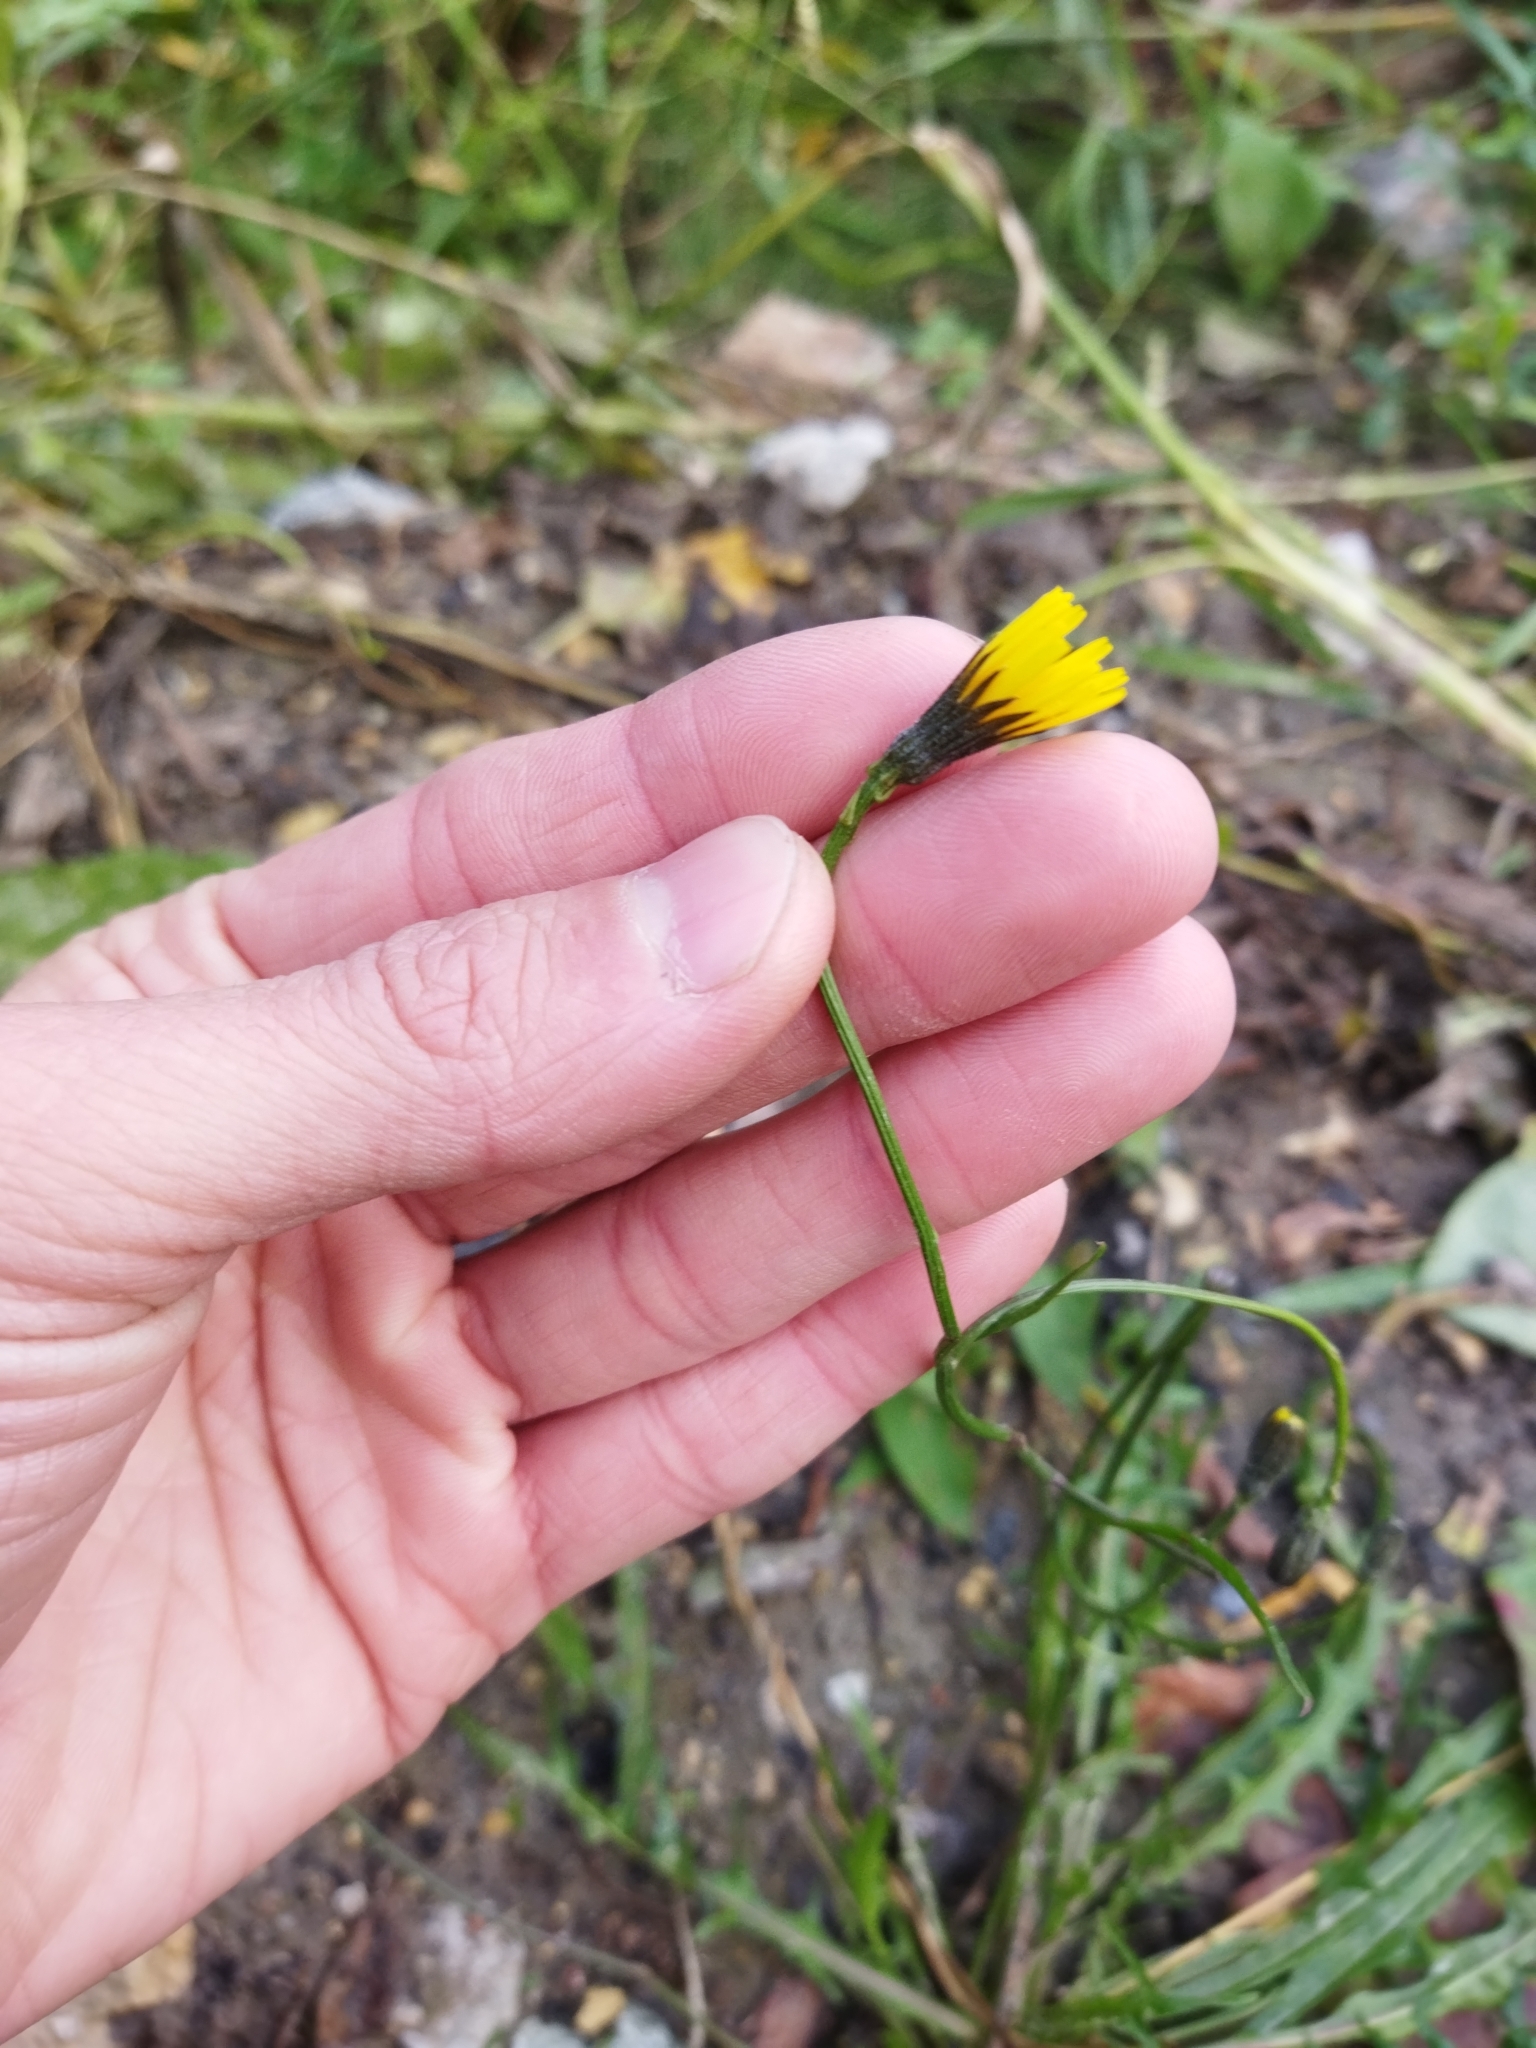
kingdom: Plantae
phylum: Tracheophyta
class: Magnoliopsida
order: Asterales
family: Asteraceae
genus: Scorzoneroides
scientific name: Scorzoneroides autumnalis
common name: Autumn hawkbit
